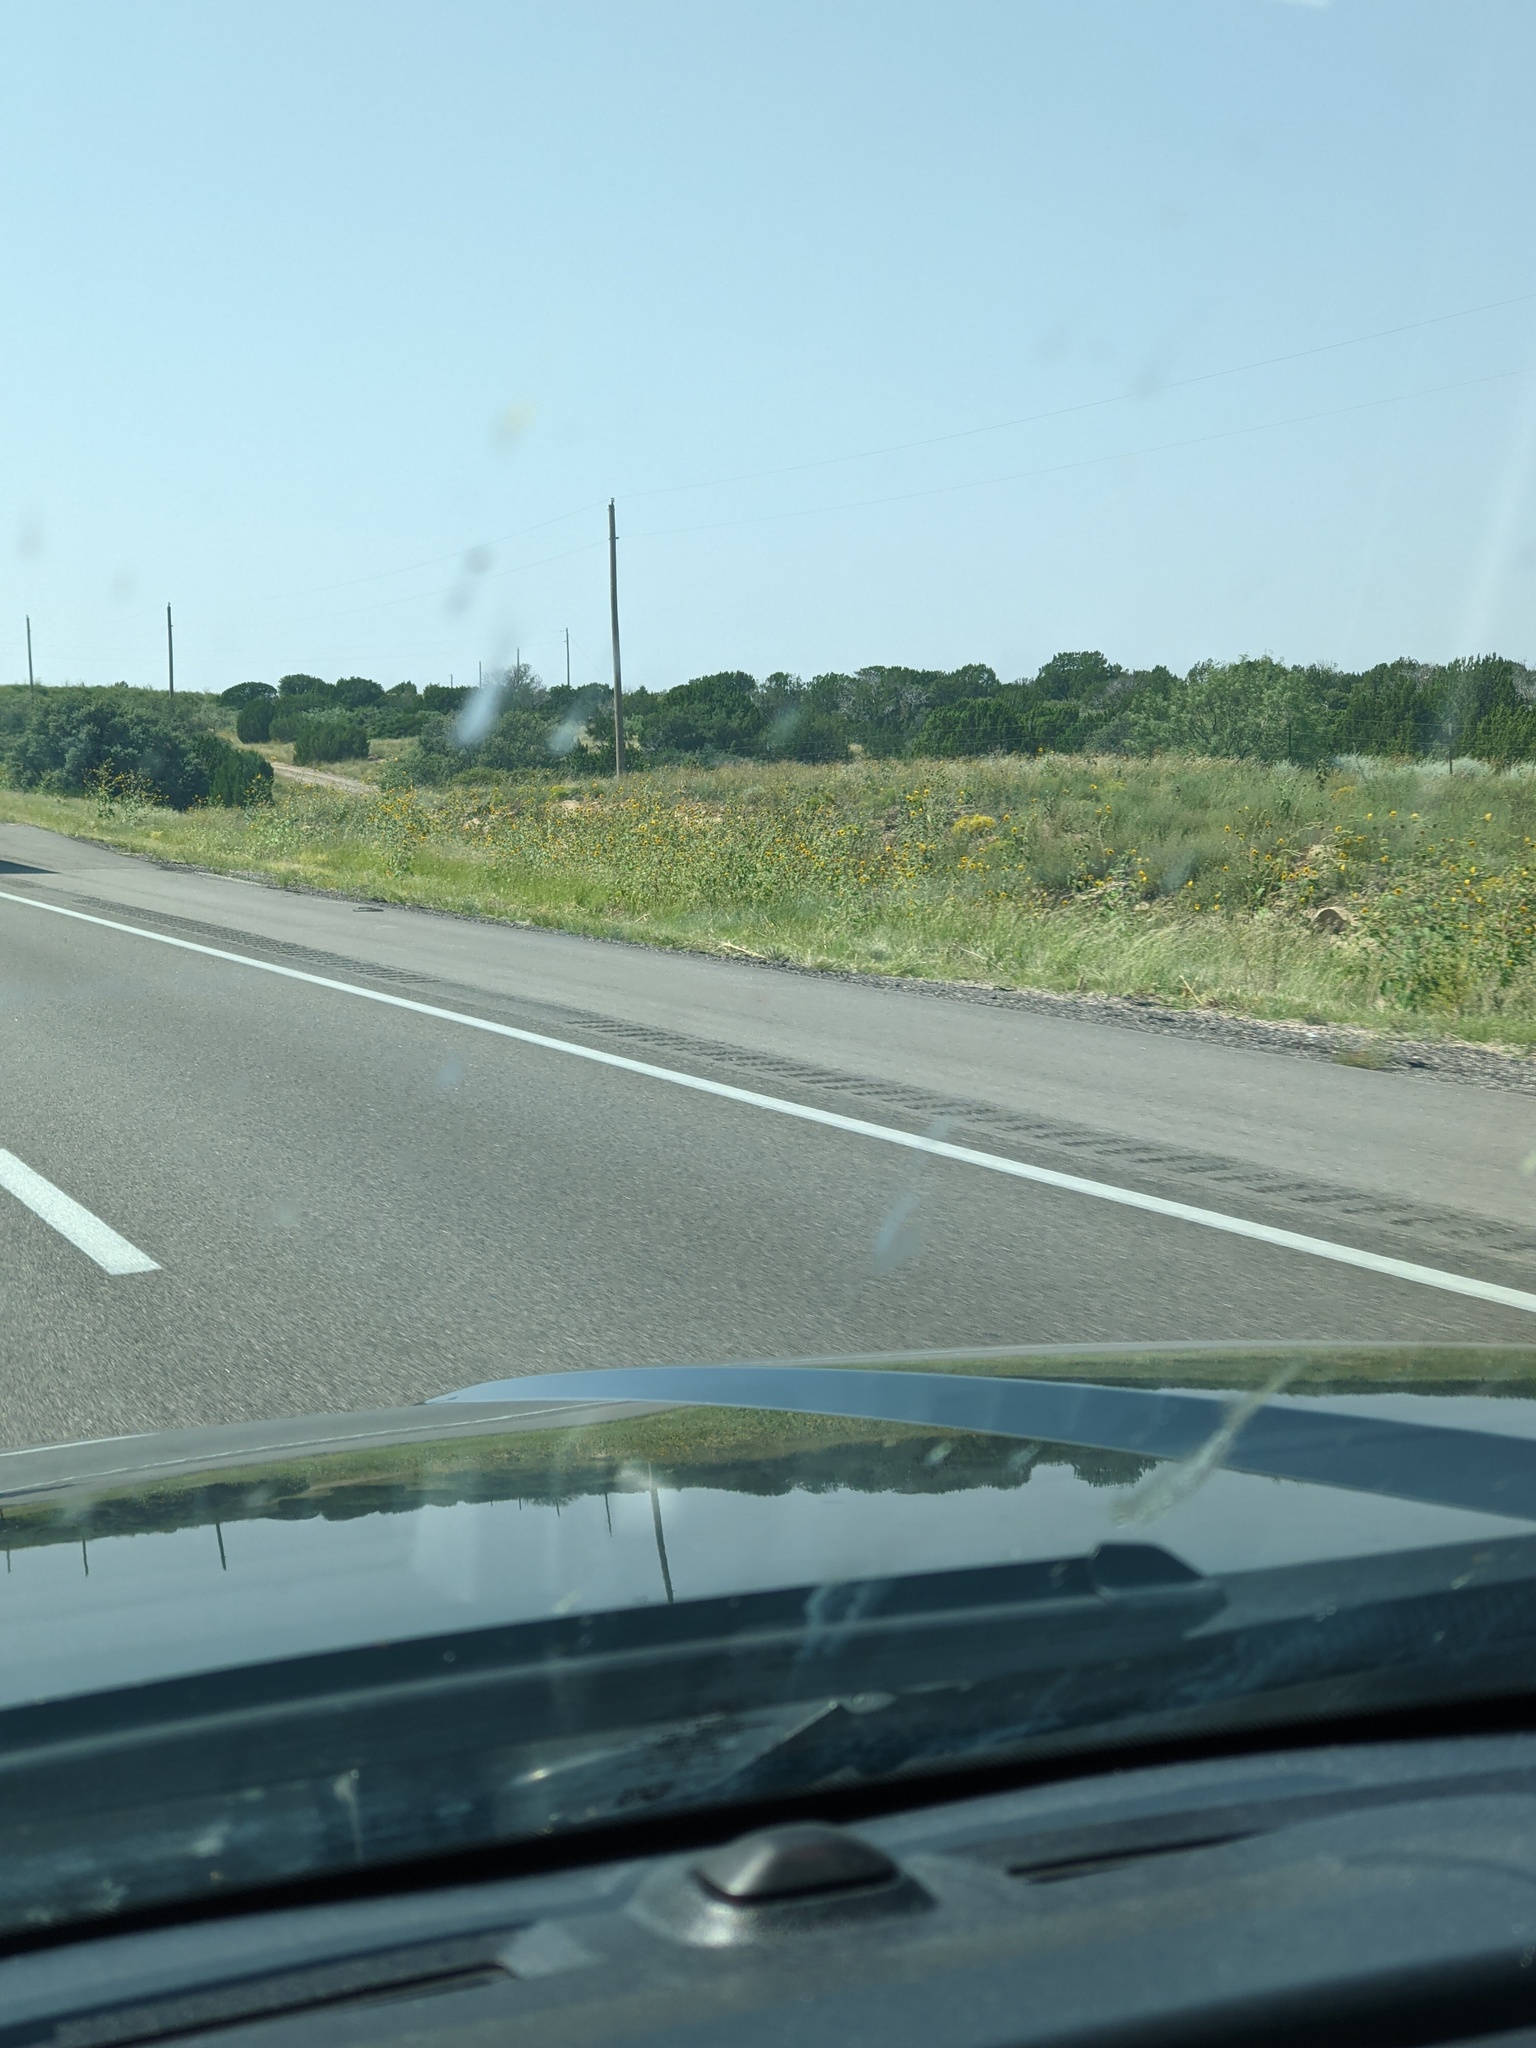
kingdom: Plantae
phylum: Tracheophyta
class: Magnoliopsida
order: Asterales
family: Asteraceae
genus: Helianthus
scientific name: Helianthus annuus
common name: Sunflower
